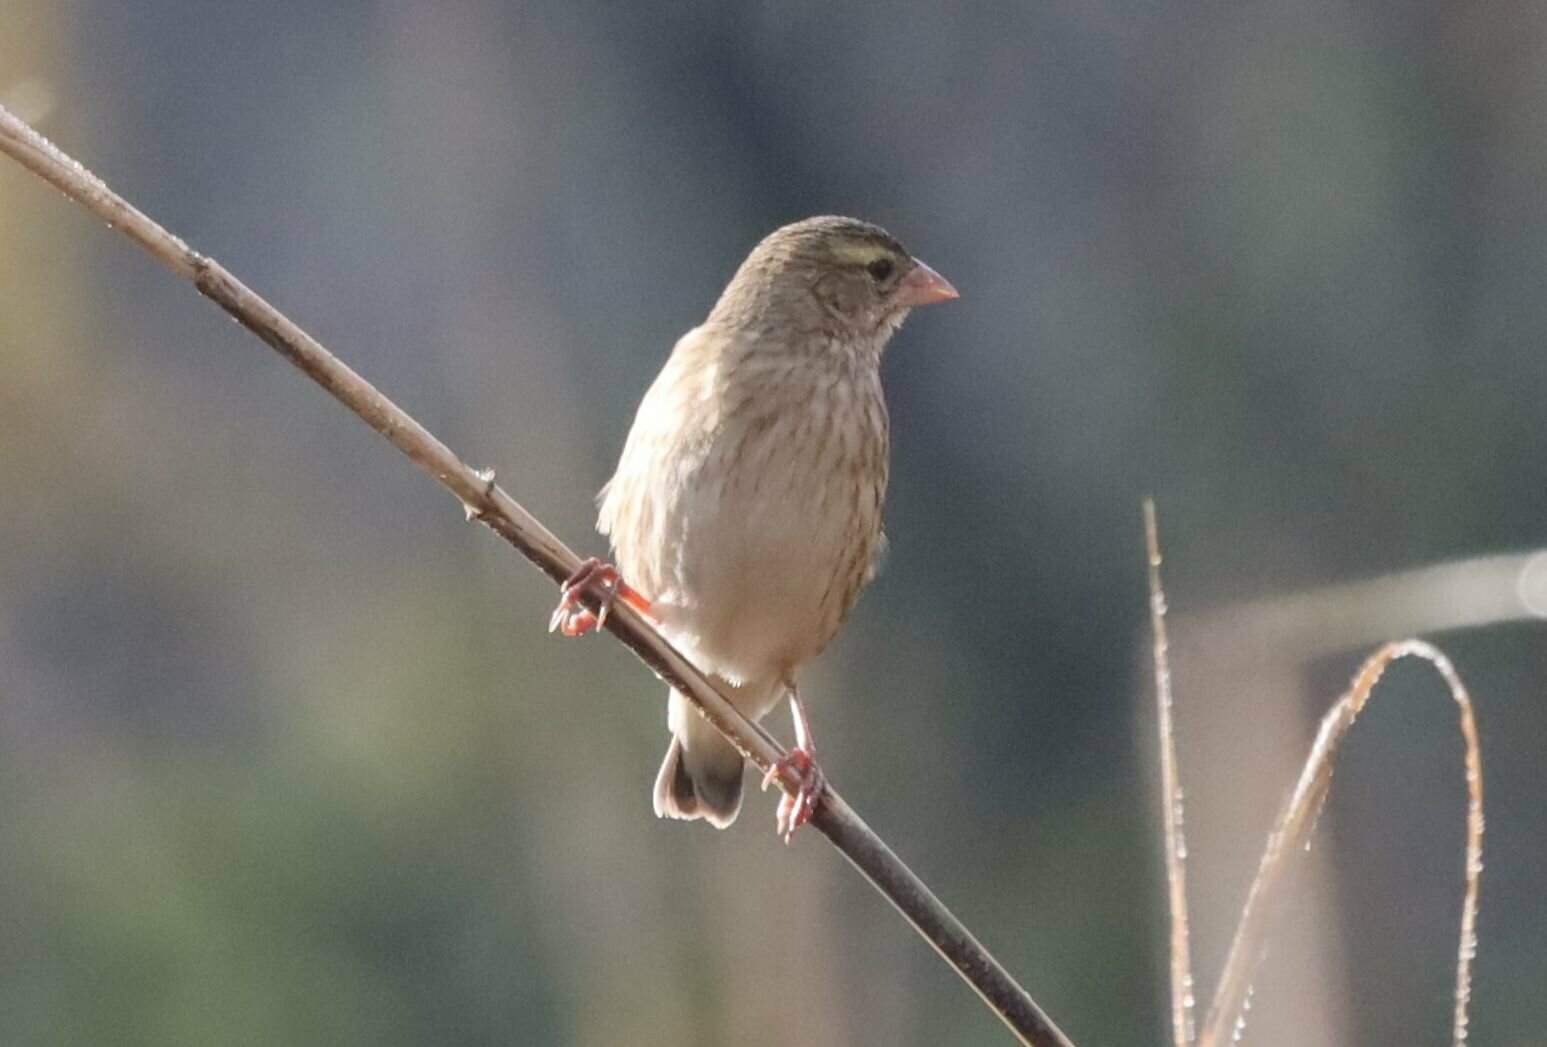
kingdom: Animalia
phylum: Chordata
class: Aves
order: Passeriformes
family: Ploceidae
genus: Euplectes
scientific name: Euplectes orix
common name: Southern red bishop
